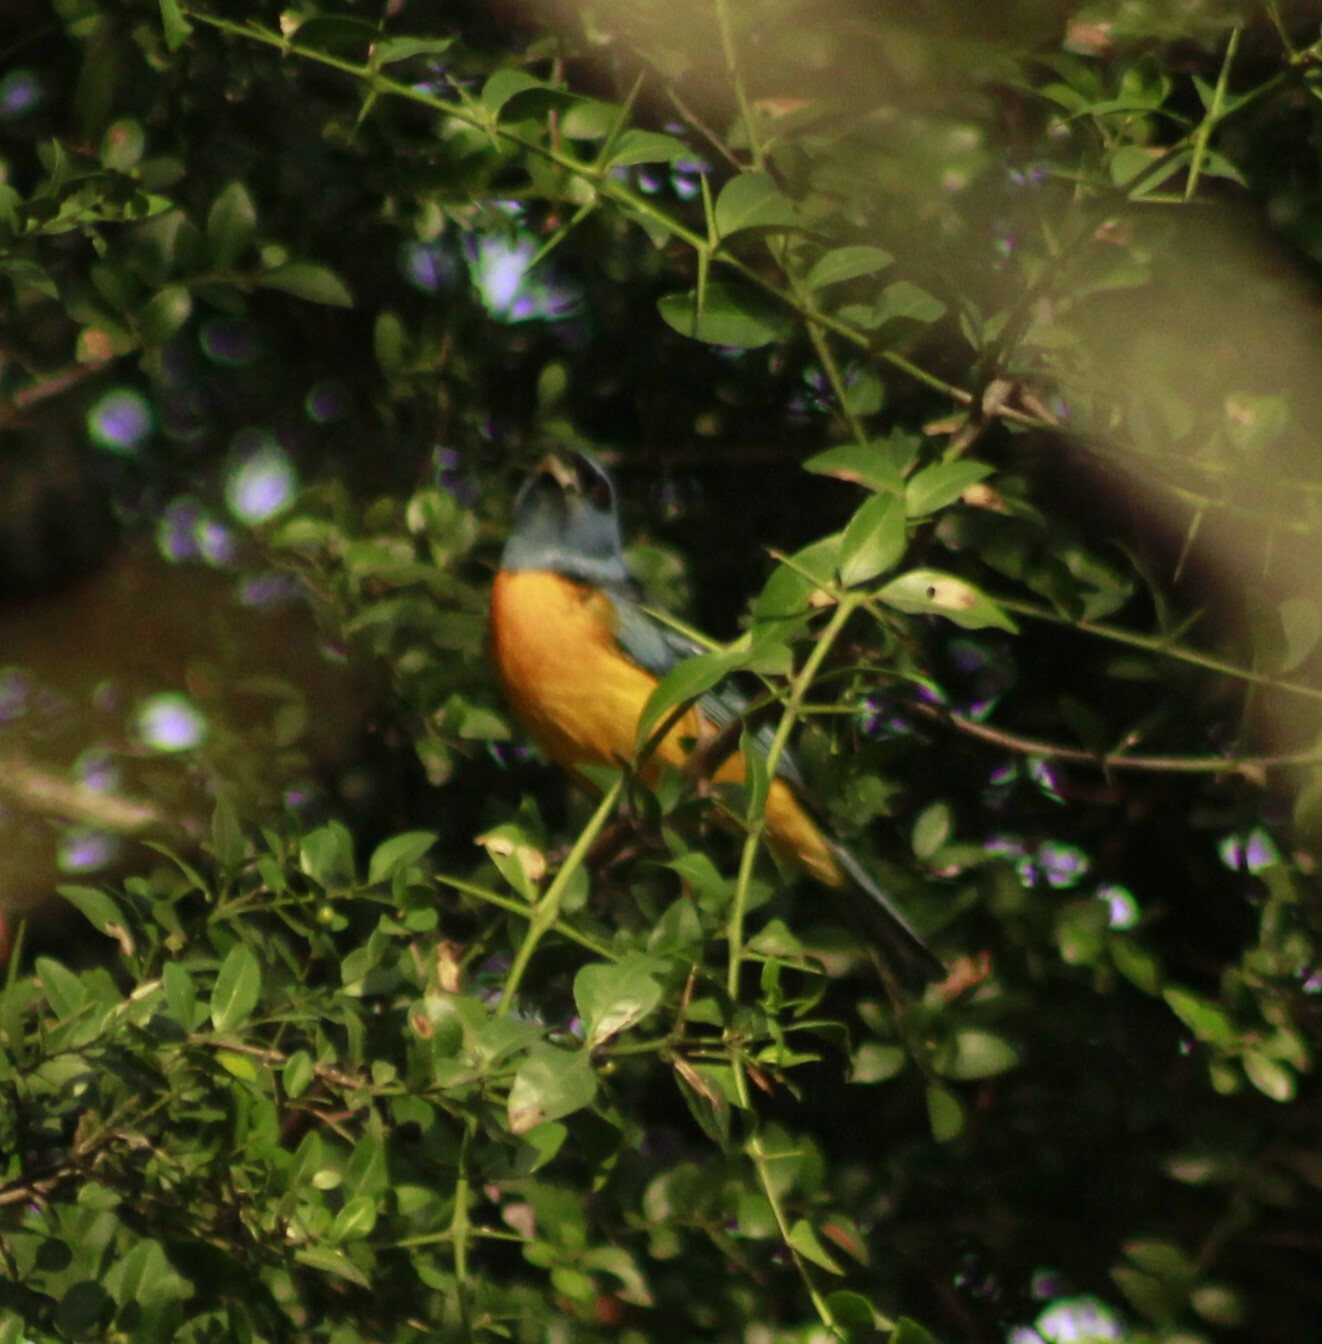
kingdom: Animalia
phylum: Chordata
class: Aves
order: Passeriformes
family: Thraupidae
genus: Rauenia
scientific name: Rauenia bonariensis
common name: Blue-and-yellow tanager
